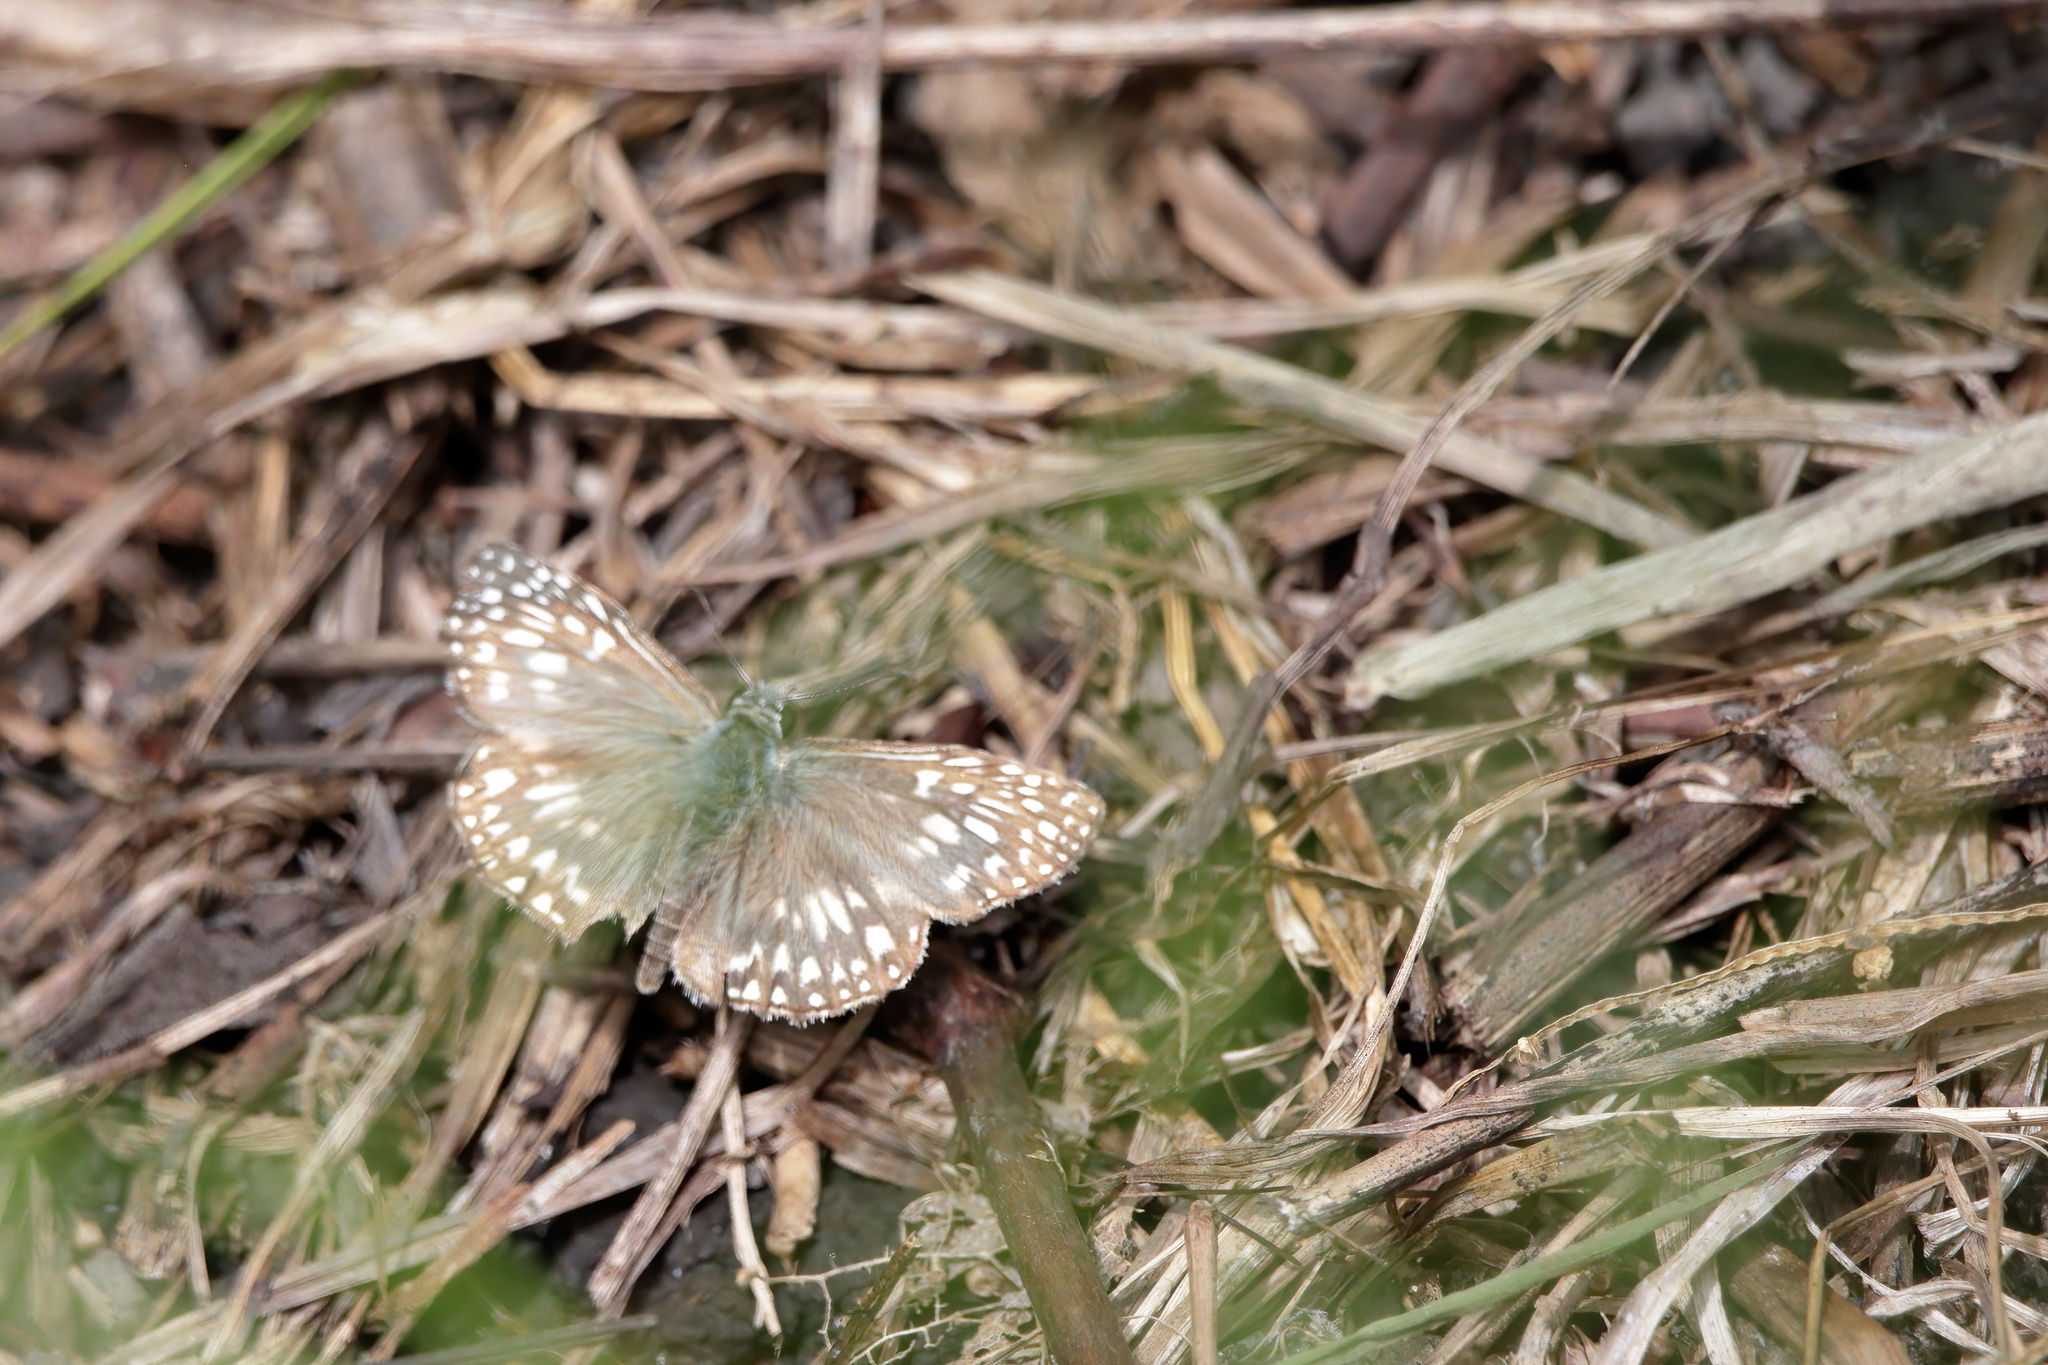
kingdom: Animalia
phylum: Arthropoda
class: Insecta
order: Lepidoptera
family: Hesperiidae
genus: Pyrgus
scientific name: Pyrgus oileus
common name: Tropical checkered-skipper
